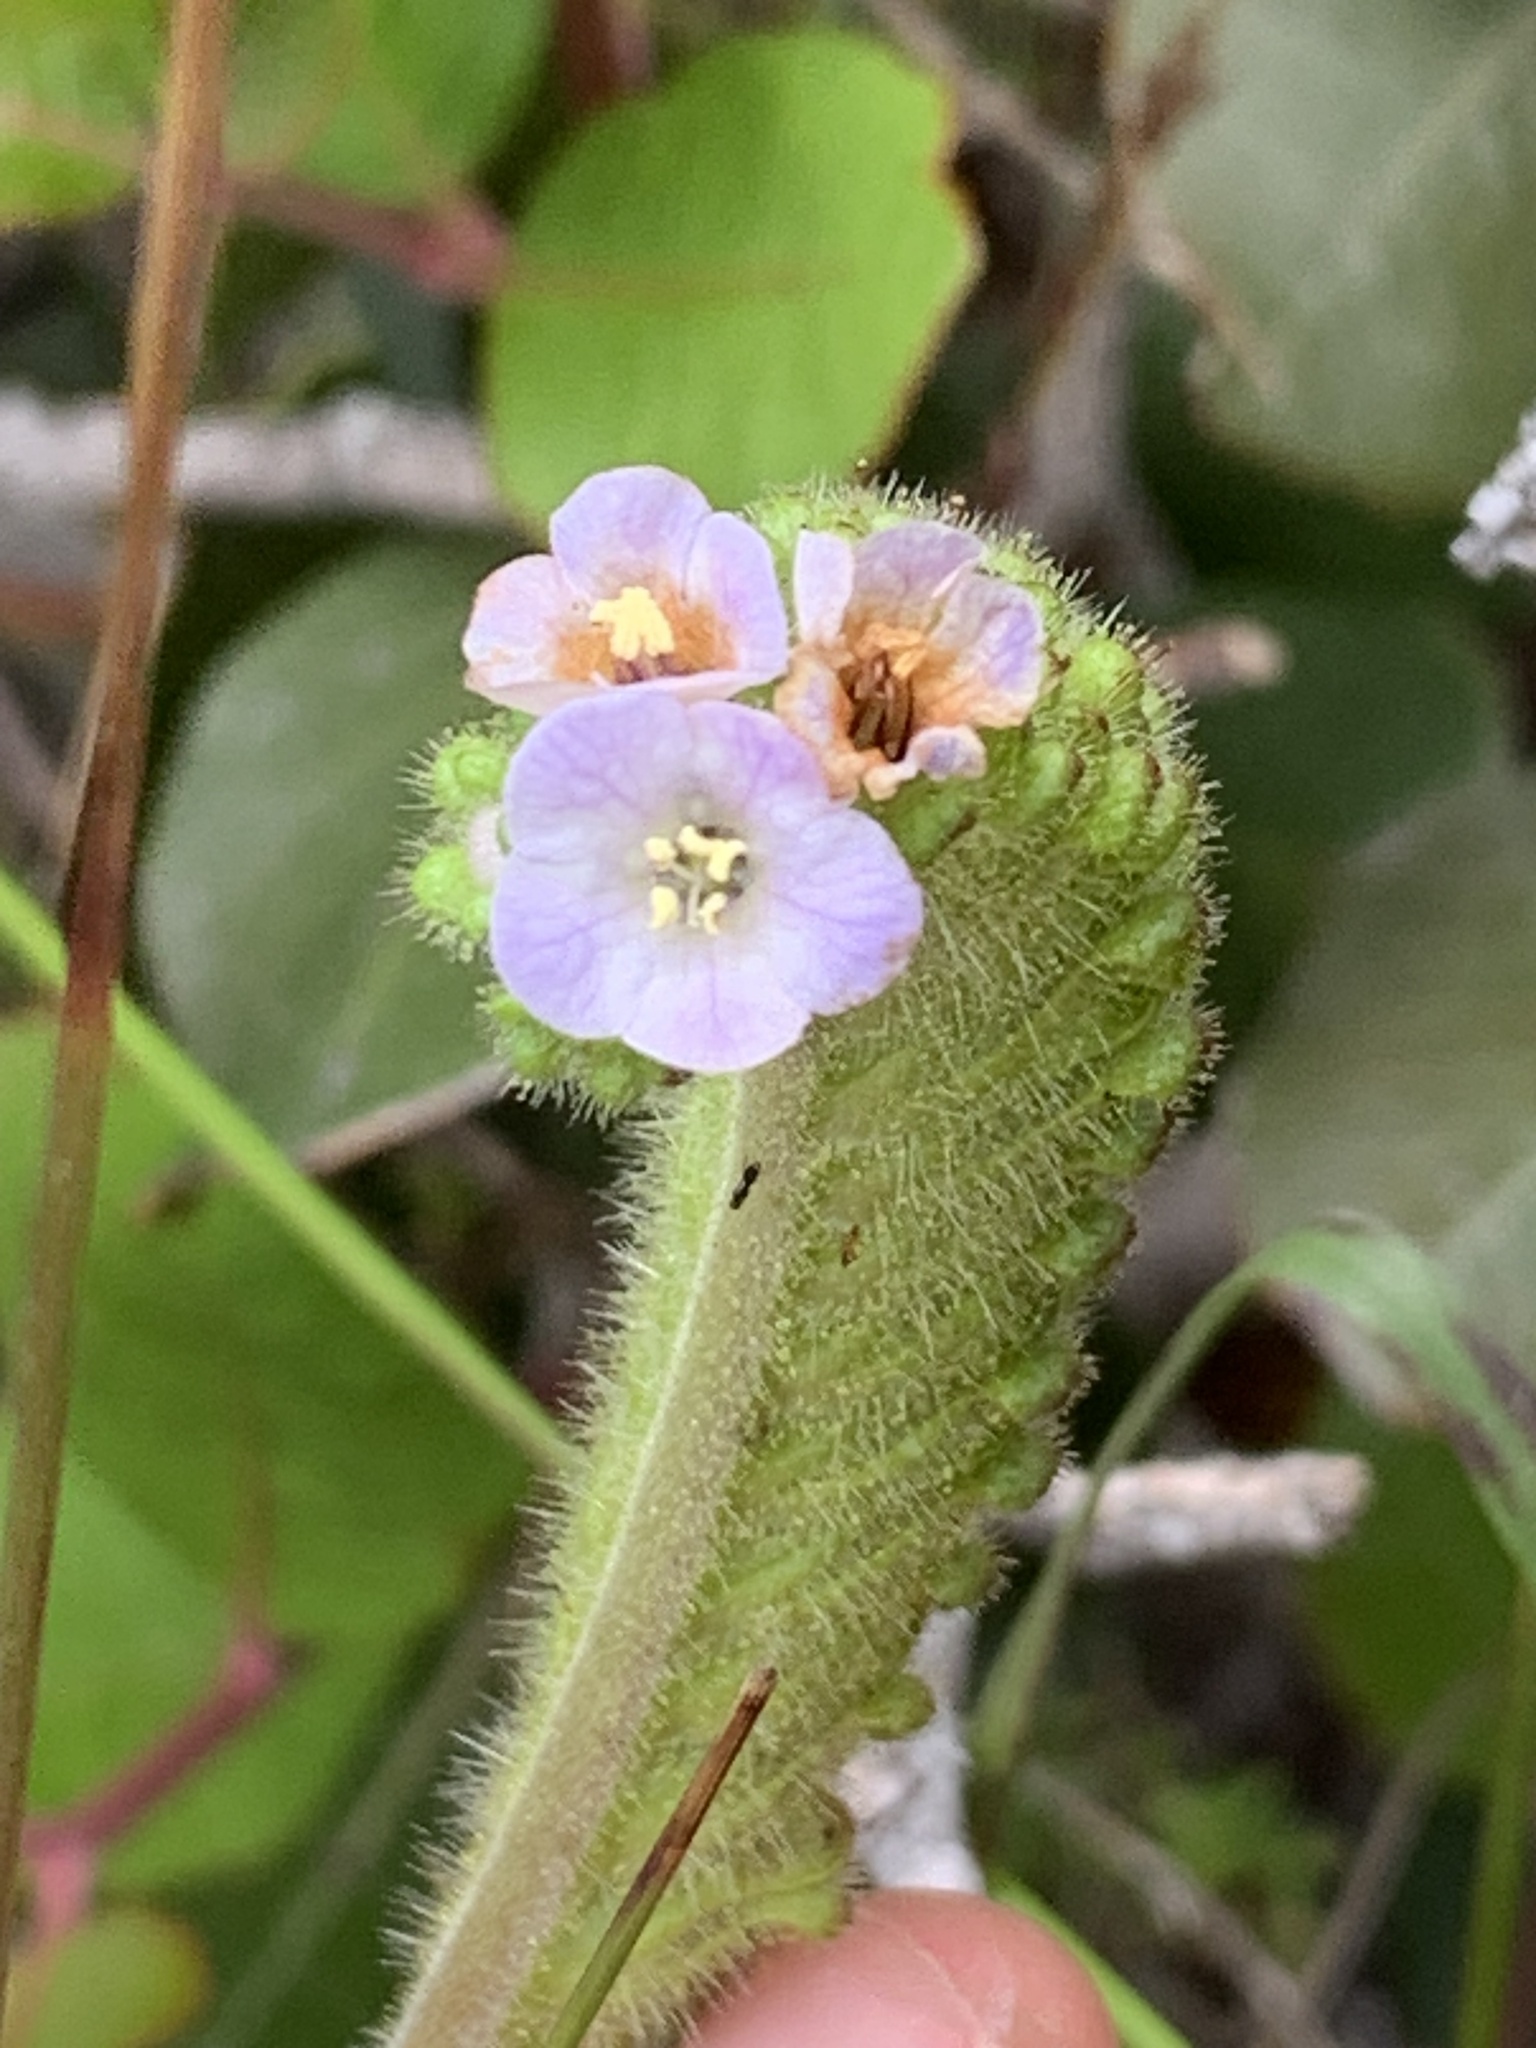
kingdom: Plantae
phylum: Tracheophyta
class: Magnoliopsida
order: Boraginales
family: Hydrophyllaceae
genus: Phacelia
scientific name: Phacelia lyonii
